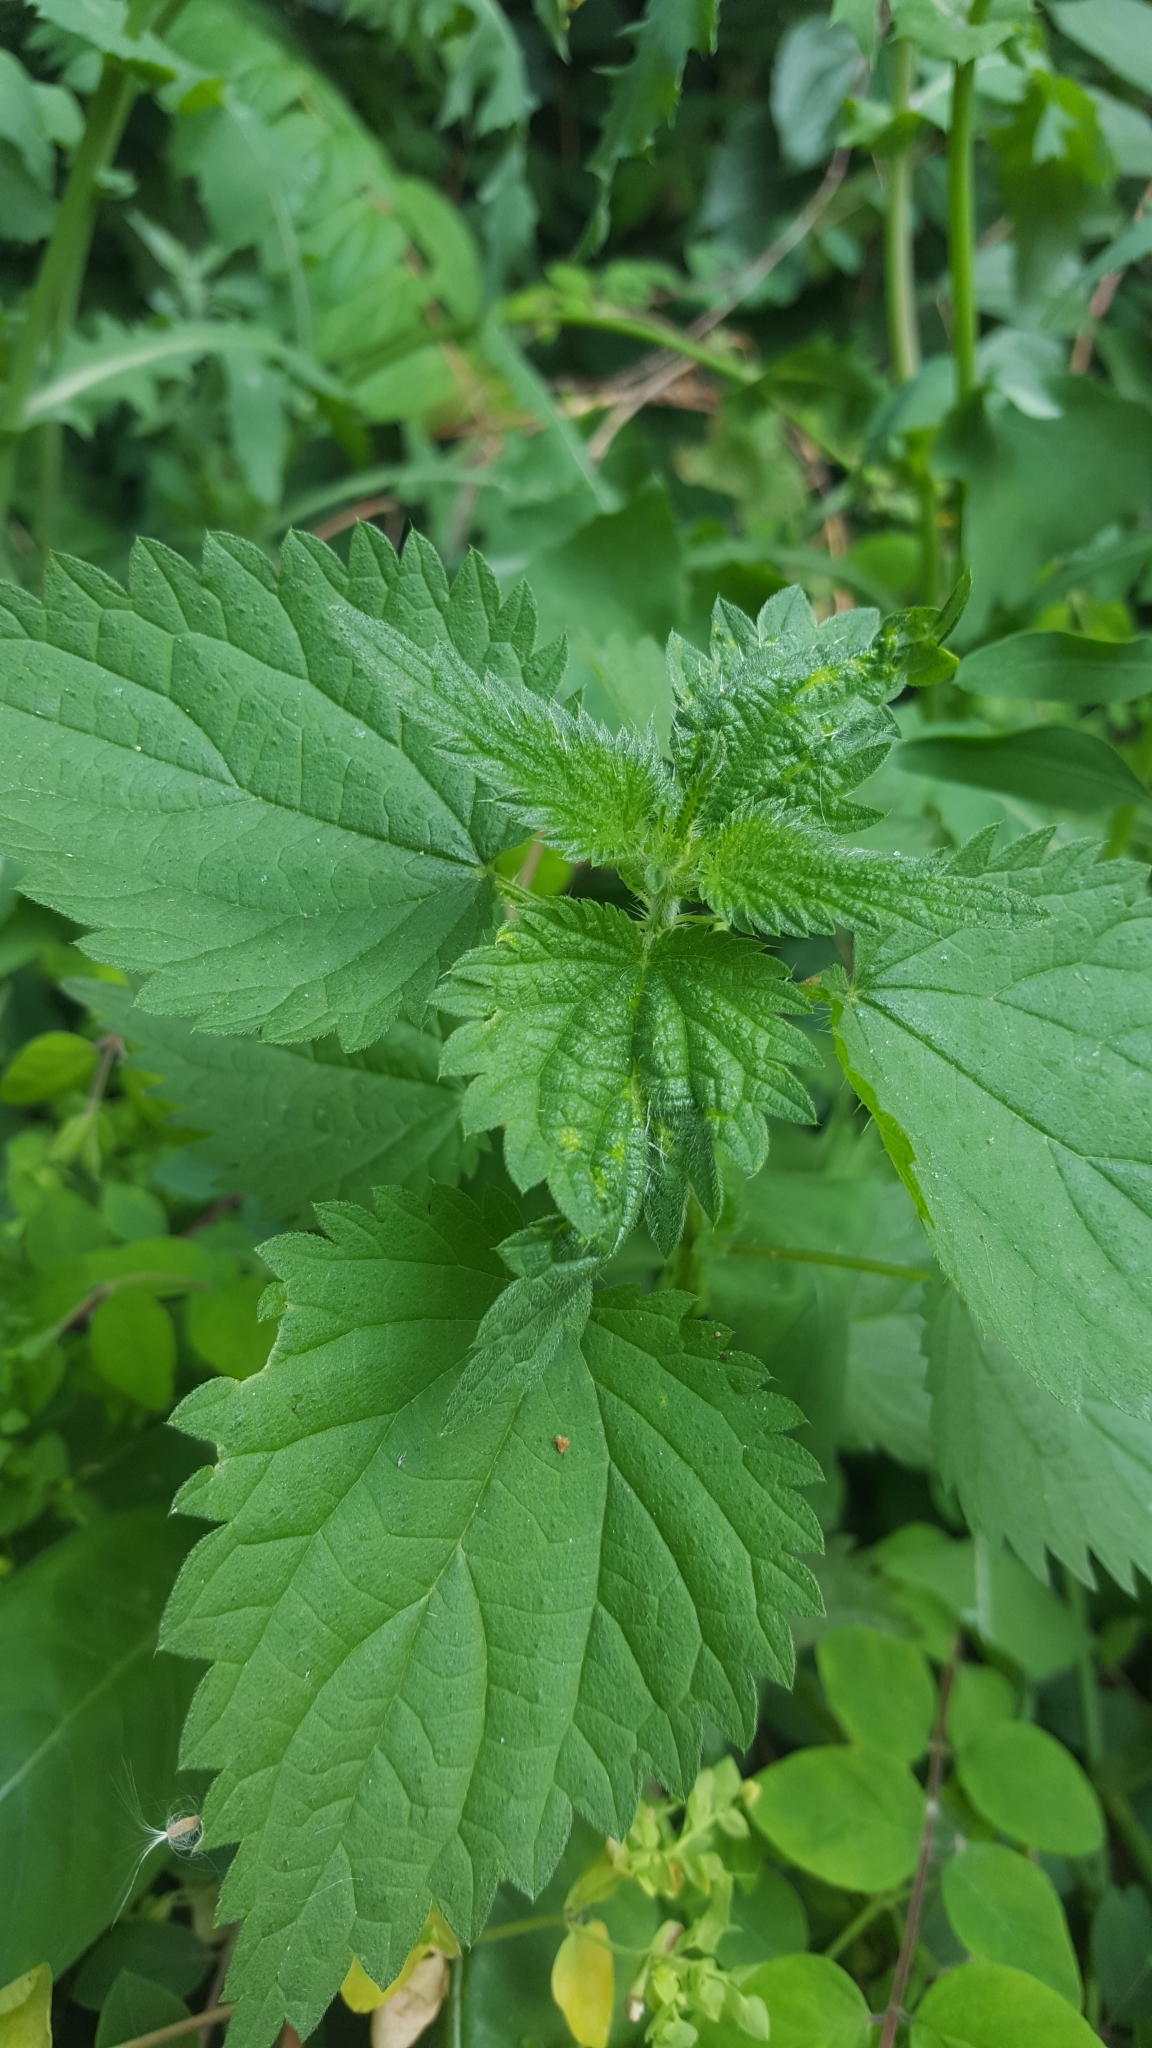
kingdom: Plantae
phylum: Tracheophyta
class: Magnoliopsida
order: Rosales
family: Urticaceae
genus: Urtica
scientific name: Urtica dioica
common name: Common nettle
